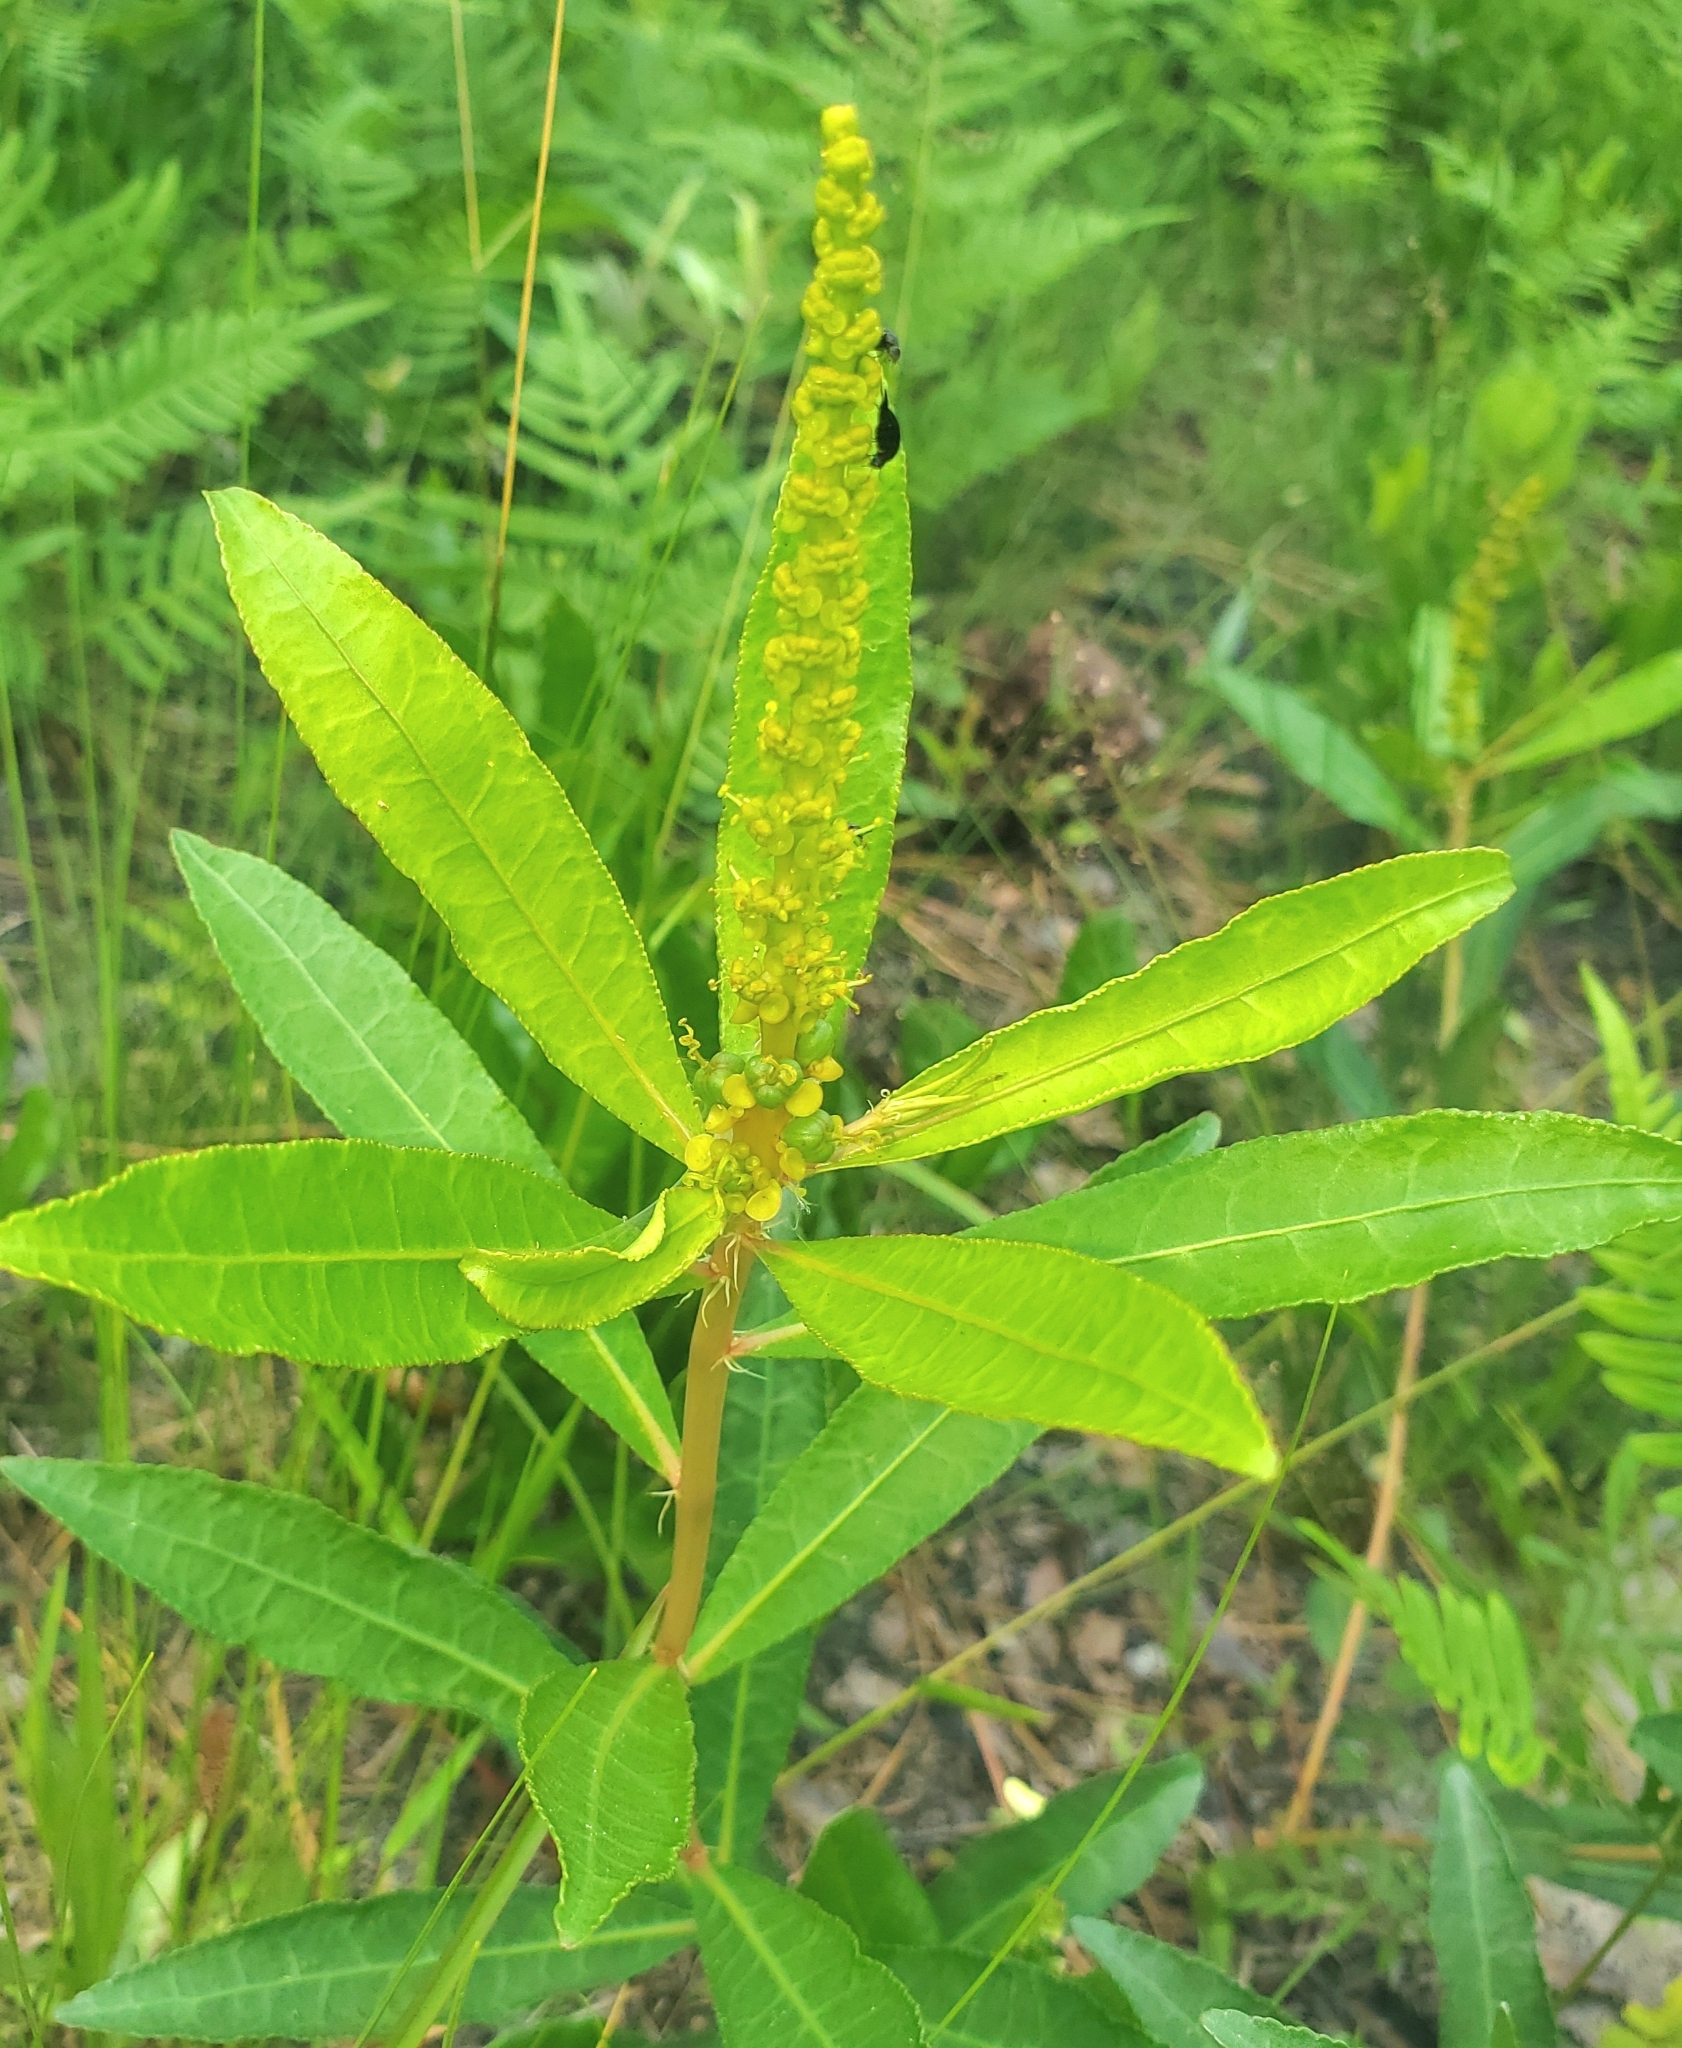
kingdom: Plantae
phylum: Tracheophyta
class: Magnoliopsida
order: Malpighiales
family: Euphorbiaceae
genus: Stillingia
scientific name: Stillingia sylvatica
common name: Queen's-delight
